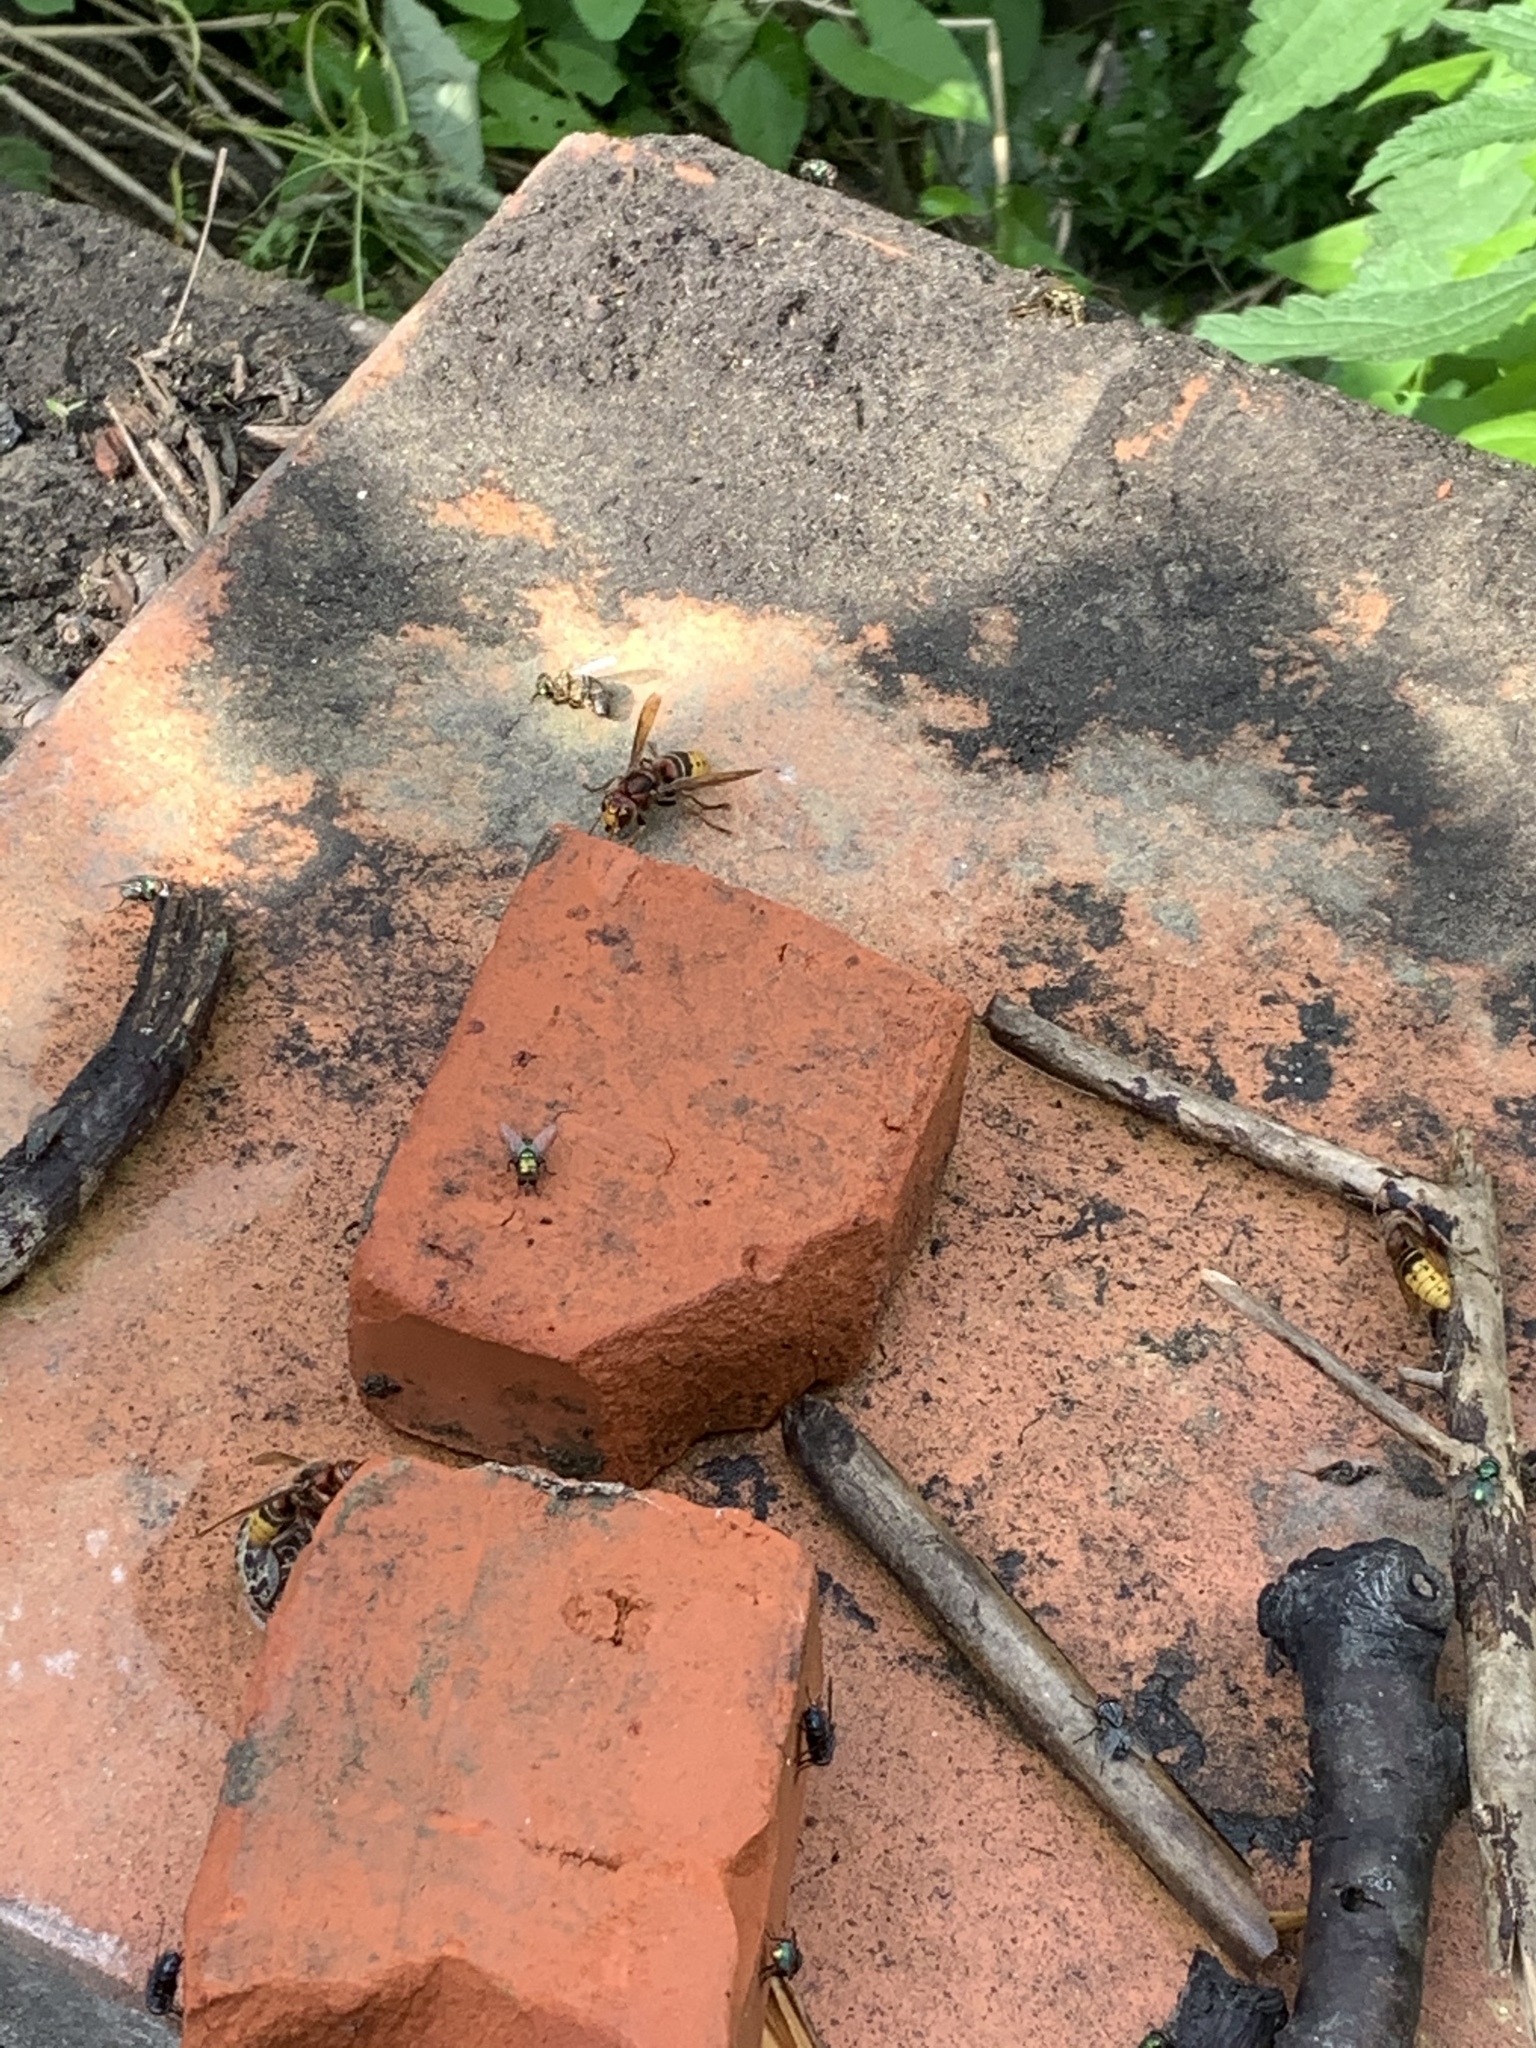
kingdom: Animalia
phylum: Arthropoda
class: Insecta
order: Hymenoptera
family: Vespidae
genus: Vespa
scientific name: Vespa crabro
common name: Hornet
